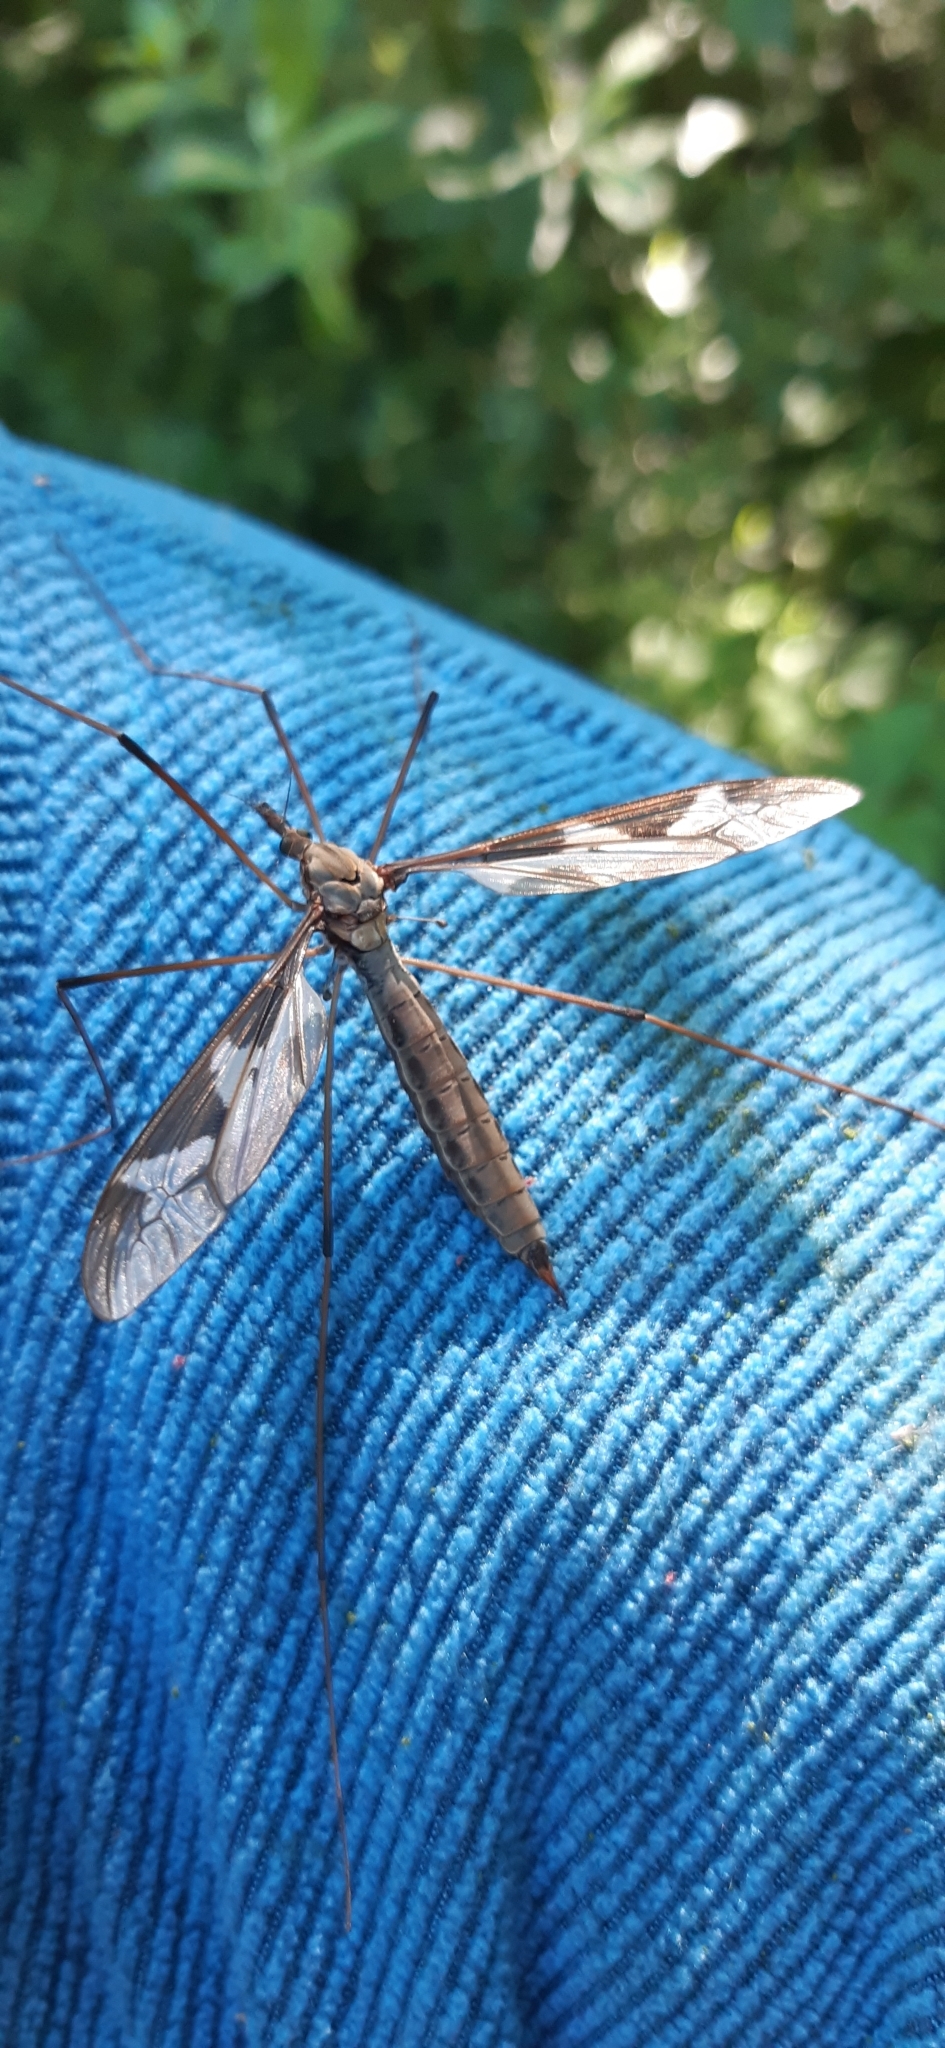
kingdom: Animalia
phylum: Arthropoda
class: Insecta
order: Diptera
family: Tipulidae
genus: Tipula
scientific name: Tipula maxima
